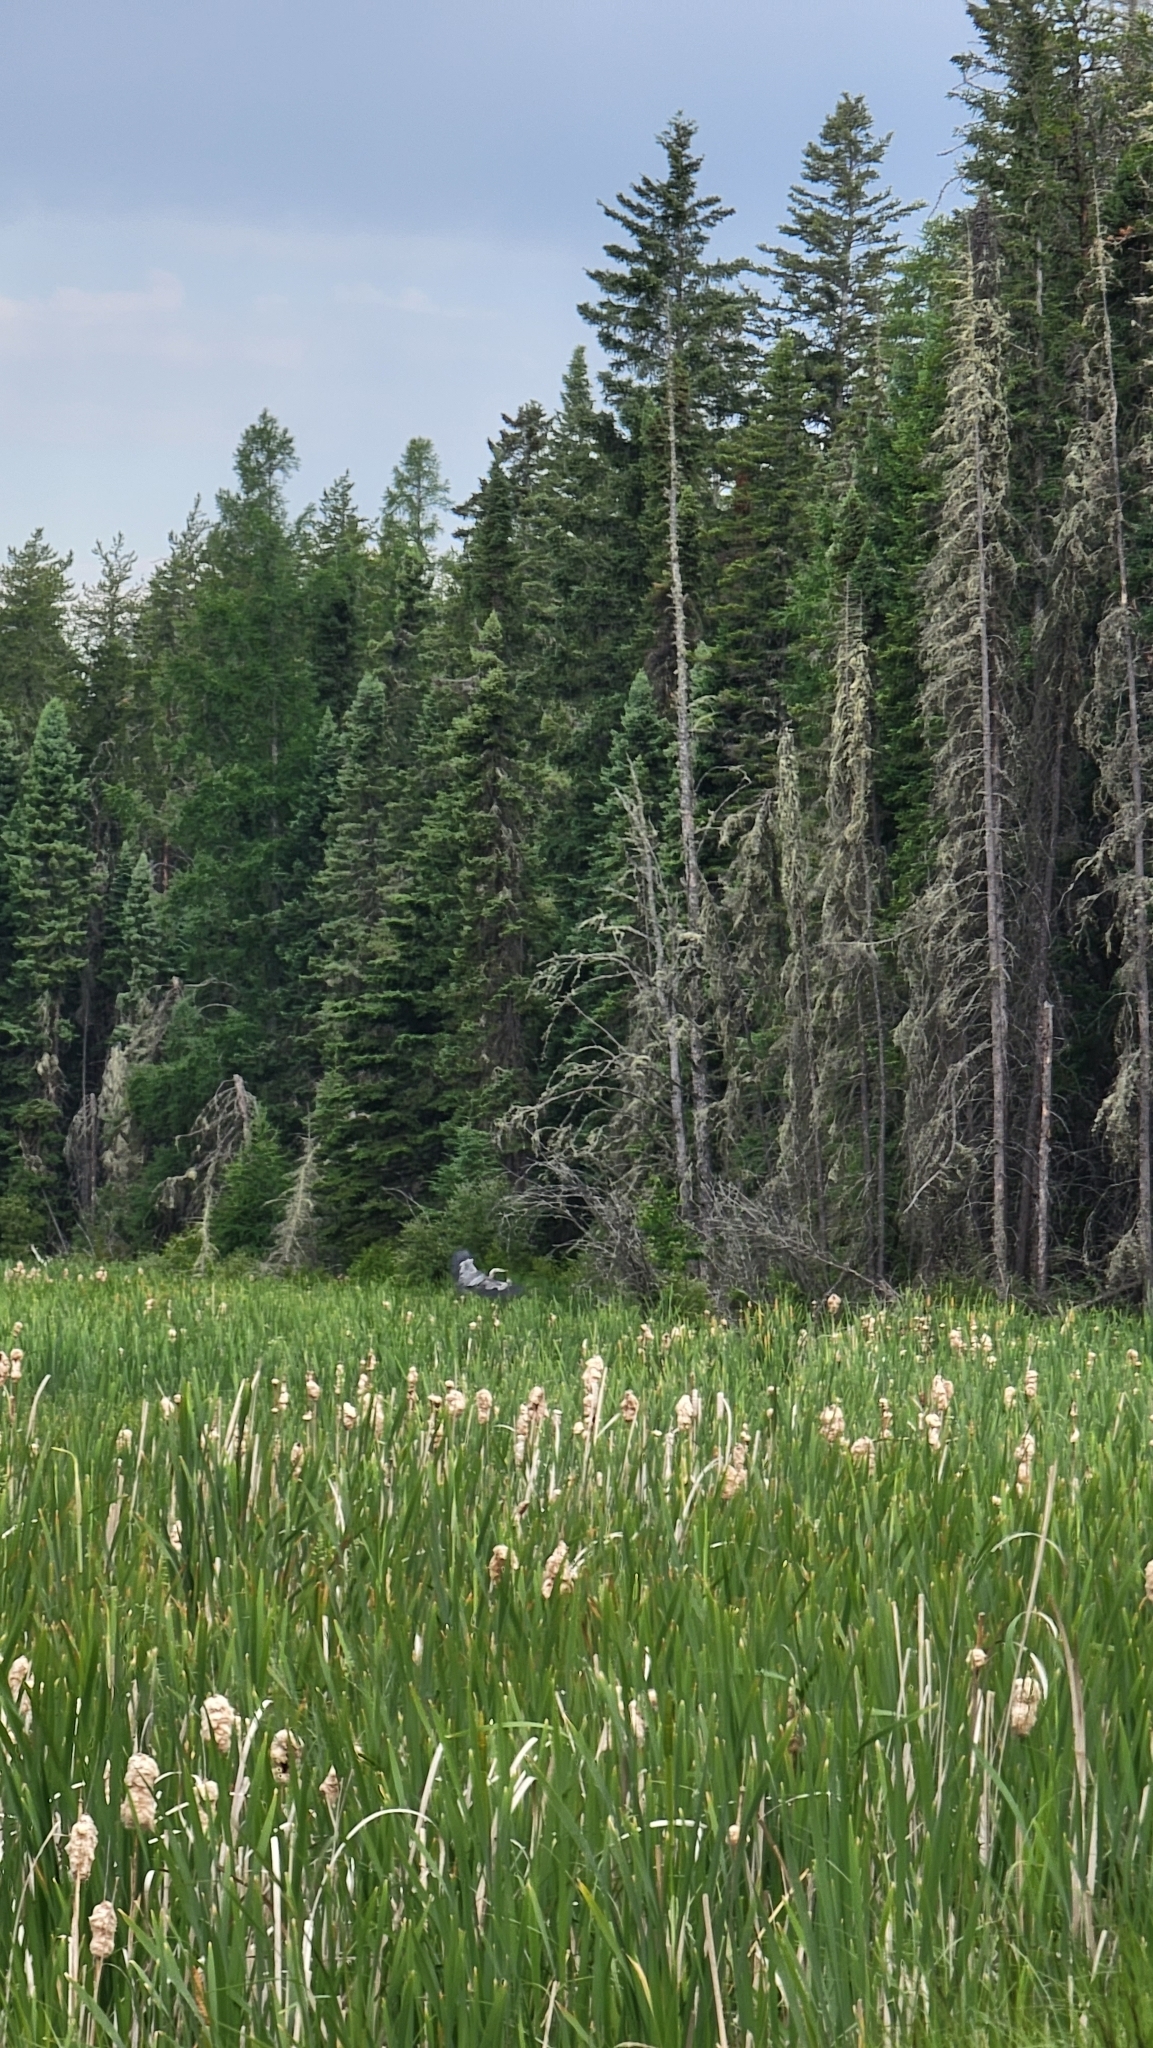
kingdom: Animalia
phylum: Chordata
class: Aves
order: Pelecaniformes
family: Ardeidae
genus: Ardea
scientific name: Ardea herodias
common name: Great blue heron
